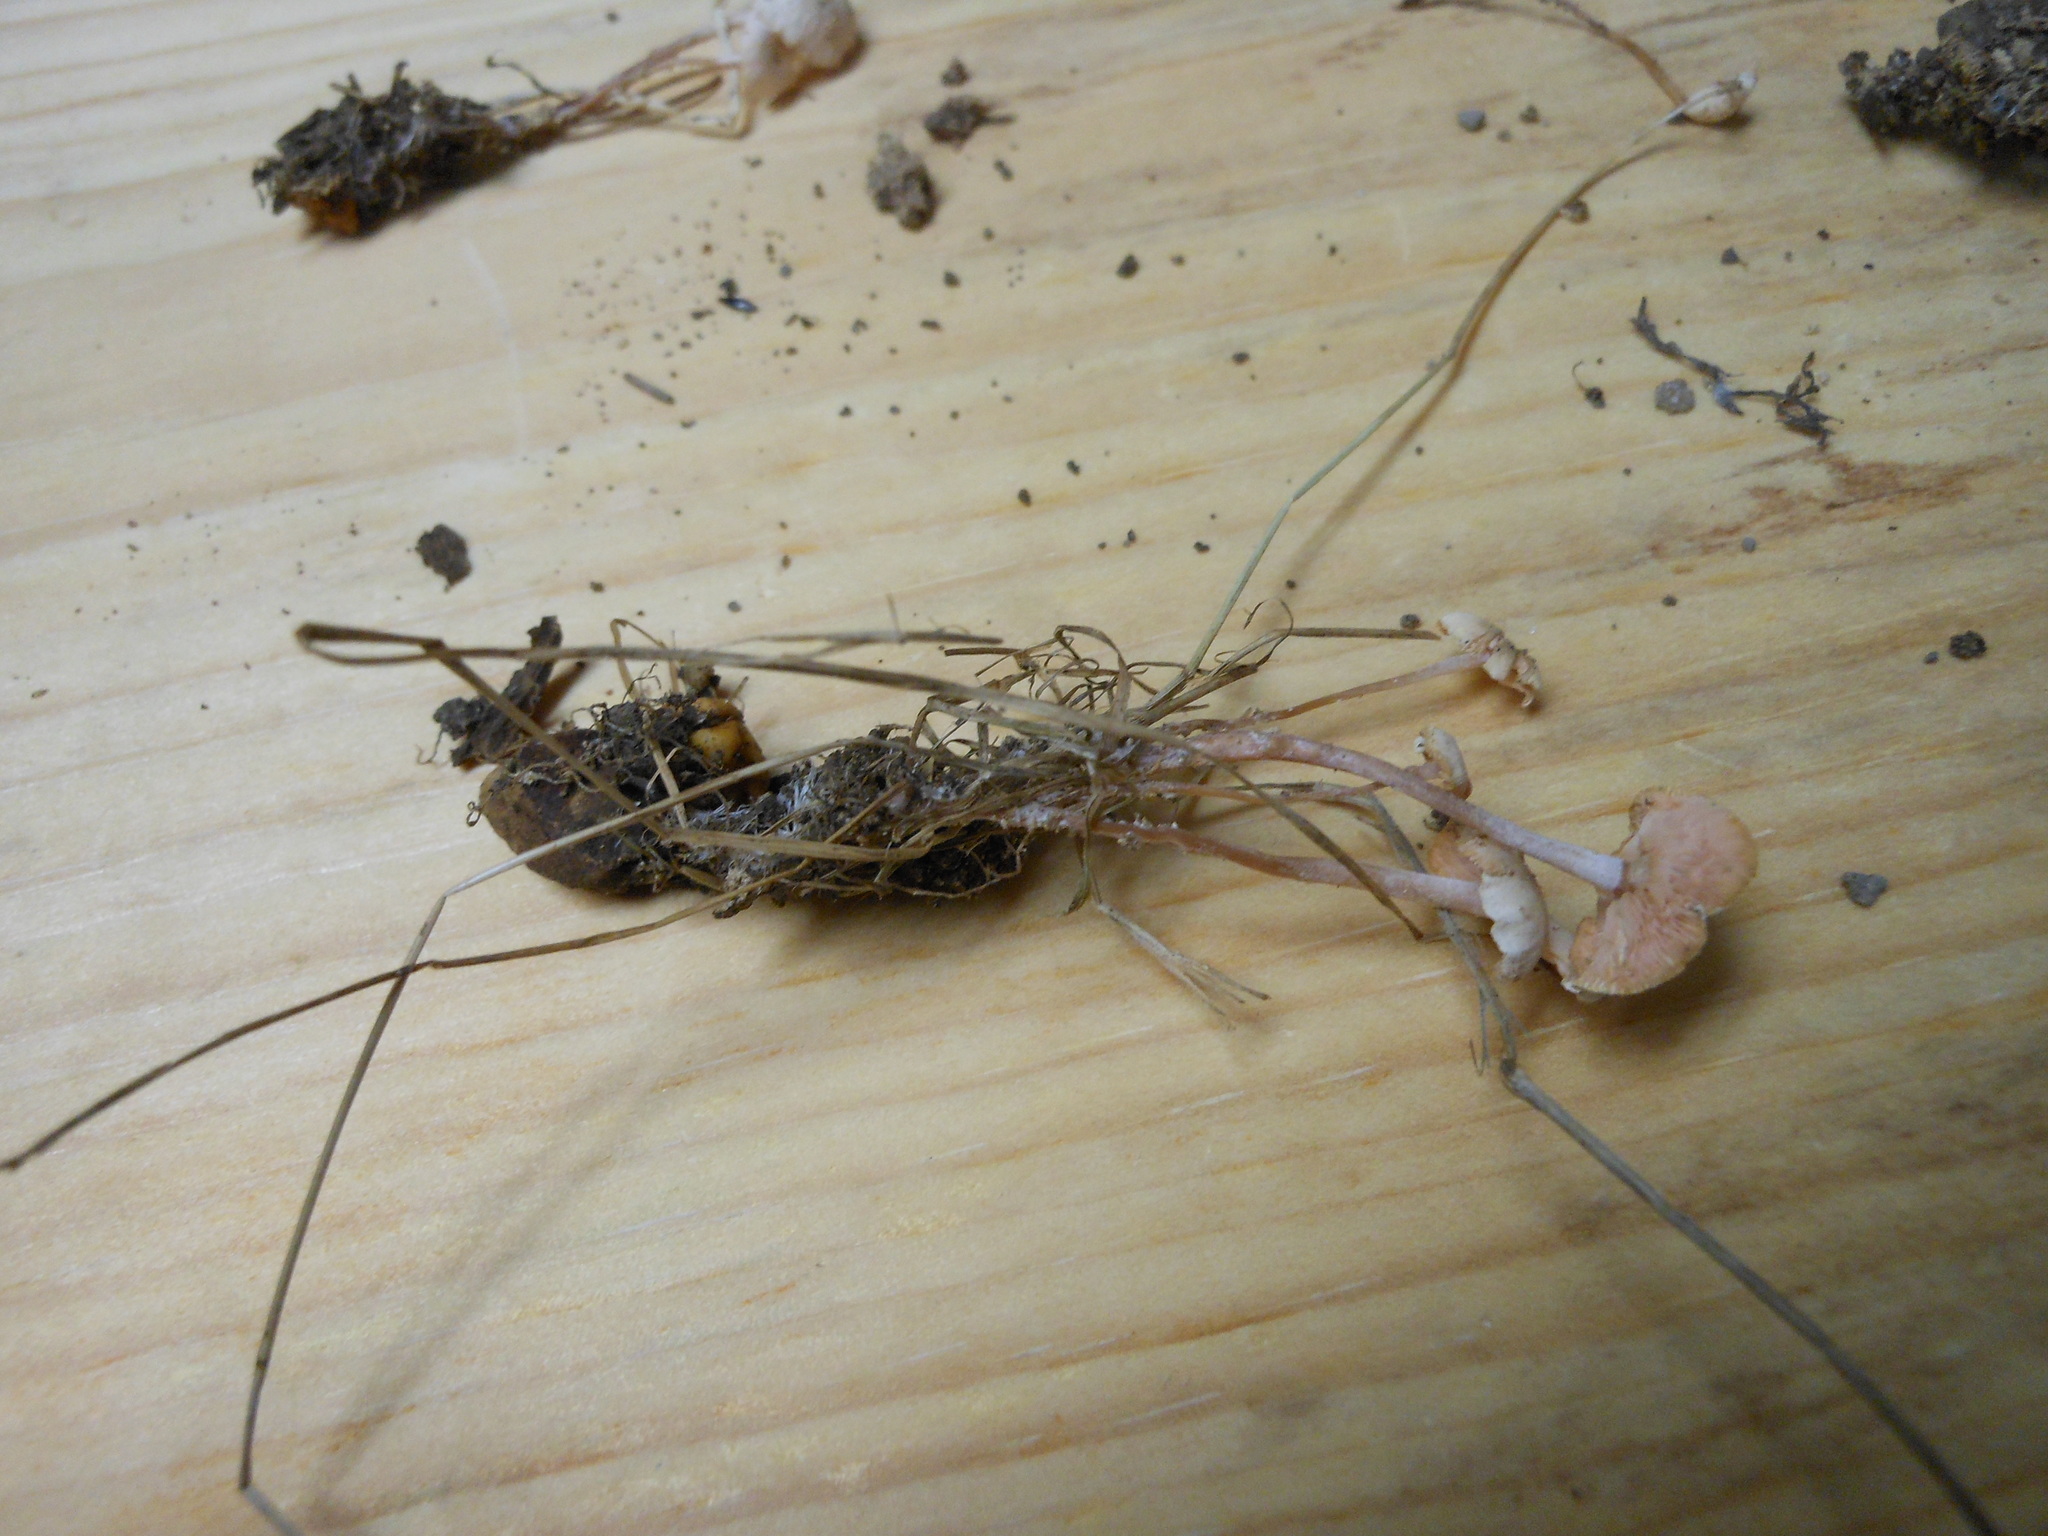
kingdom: Fungi
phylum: Basidiomycota
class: Agaricomycetes
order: Agaricales
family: Tricholomataceae
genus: Collybia
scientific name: Collybia cookei
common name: Splitpea shanklet
